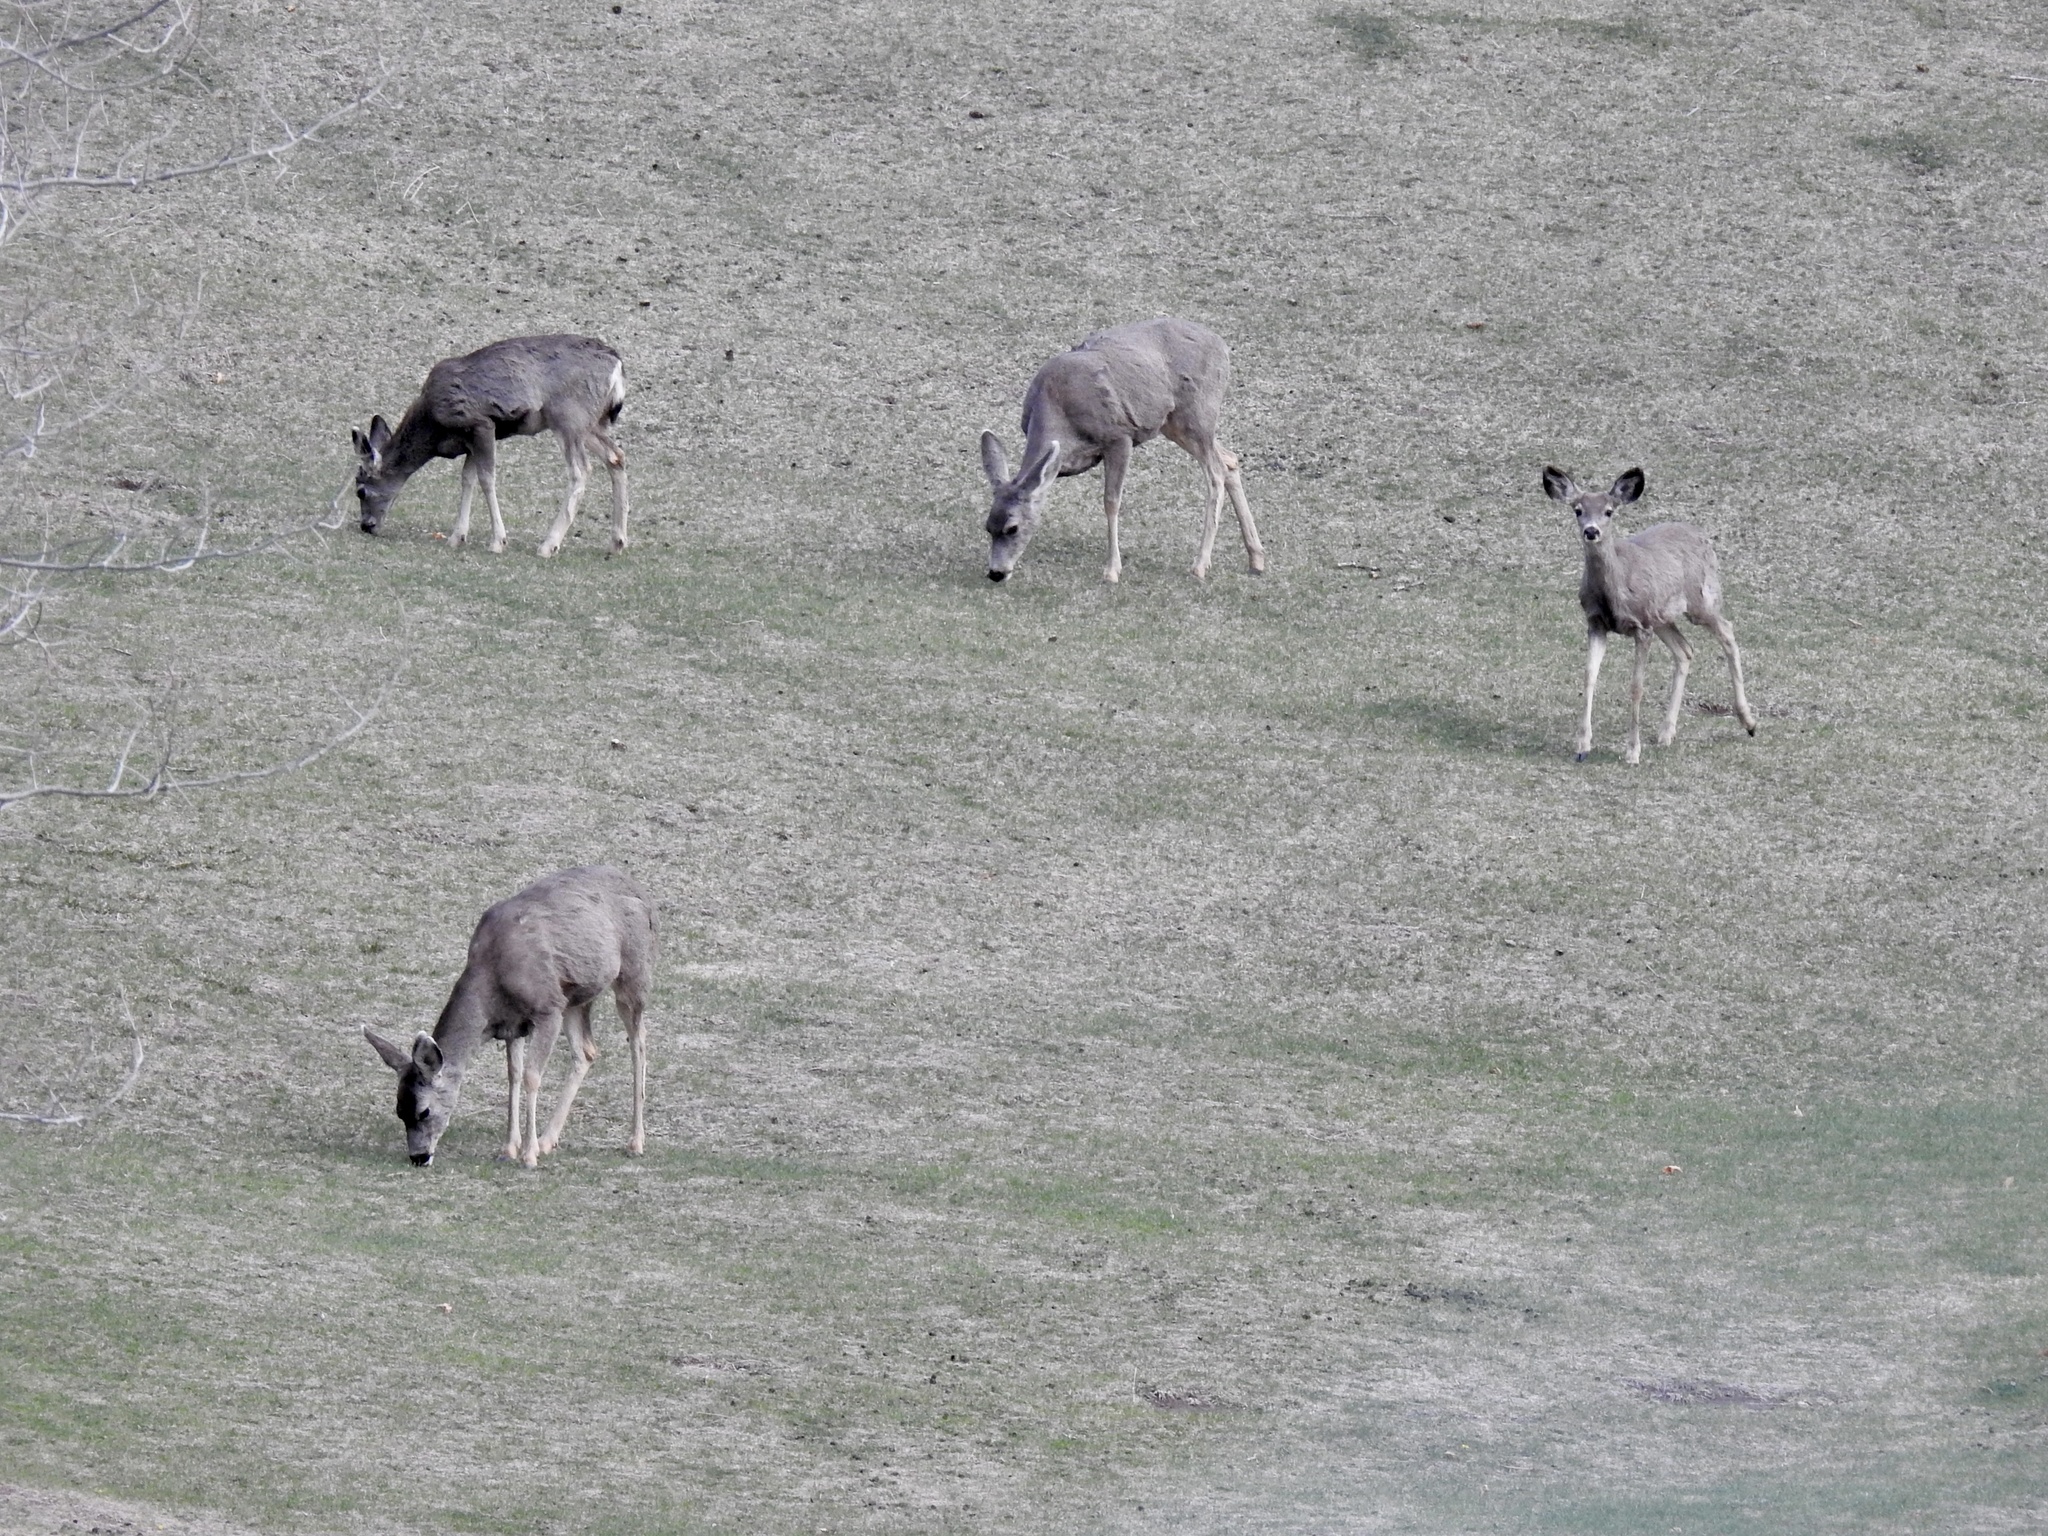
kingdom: Animalia
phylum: Chordata
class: Mammalia
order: Artiodactyla
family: Cervidae
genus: Odocoileus
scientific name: Odocoileus hemionus
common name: Mule deer
